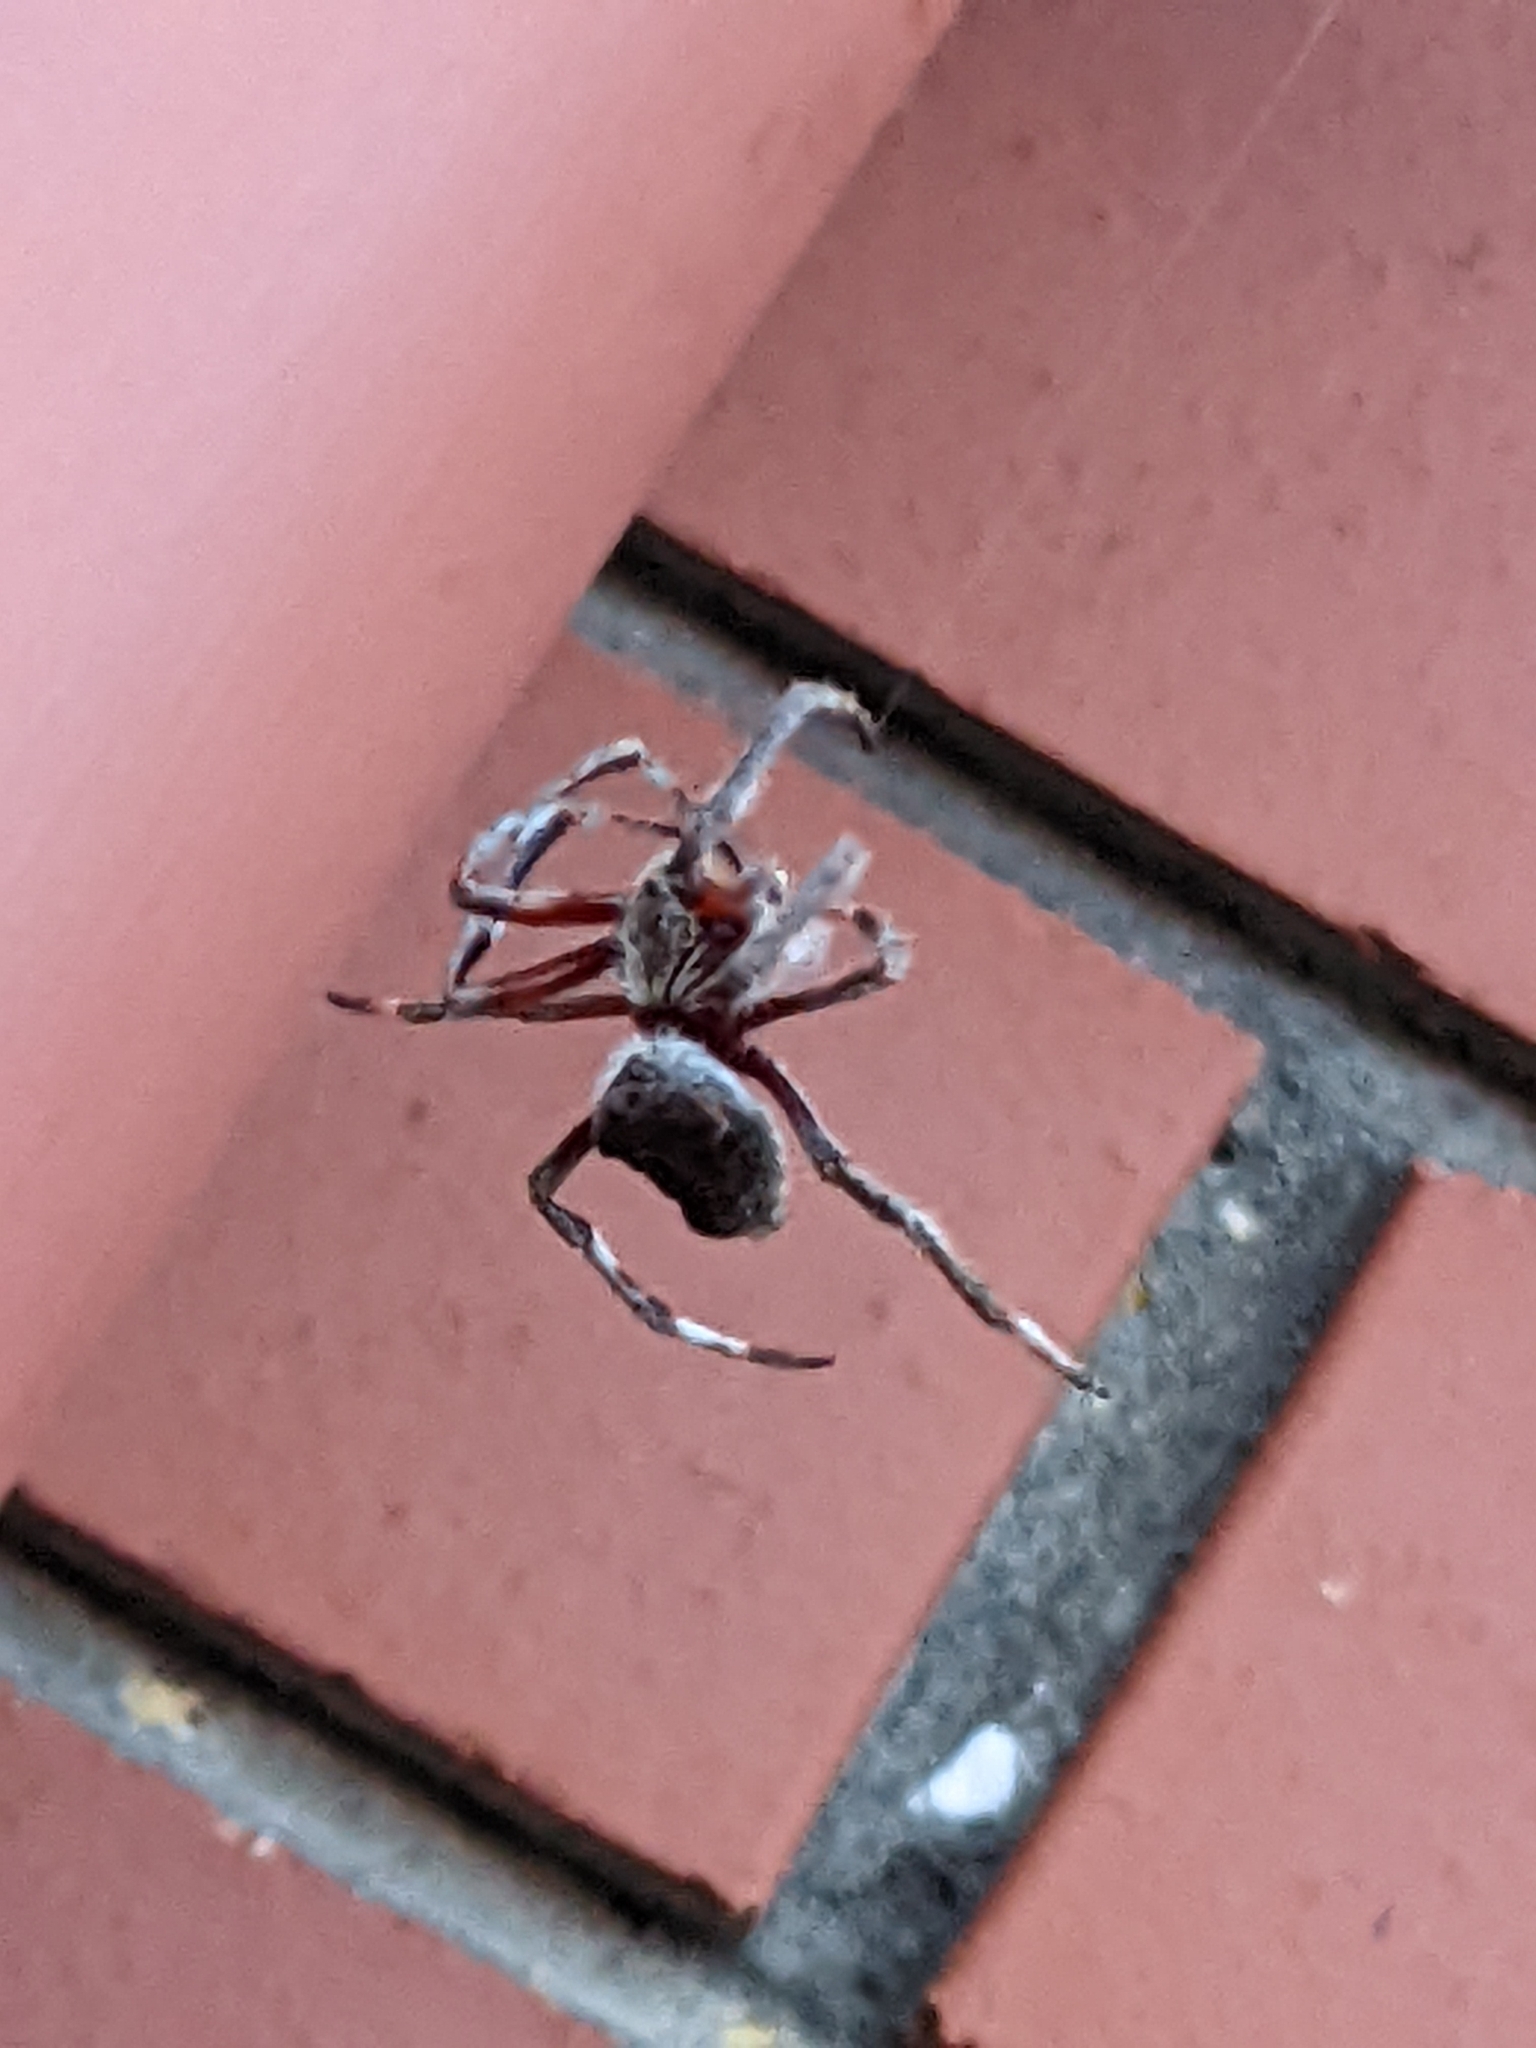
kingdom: Animalia
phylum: Arthropoda
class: Arachnida
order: Araneae
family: Araneidae
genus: Hortophora
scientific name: Hortophora biapicata
